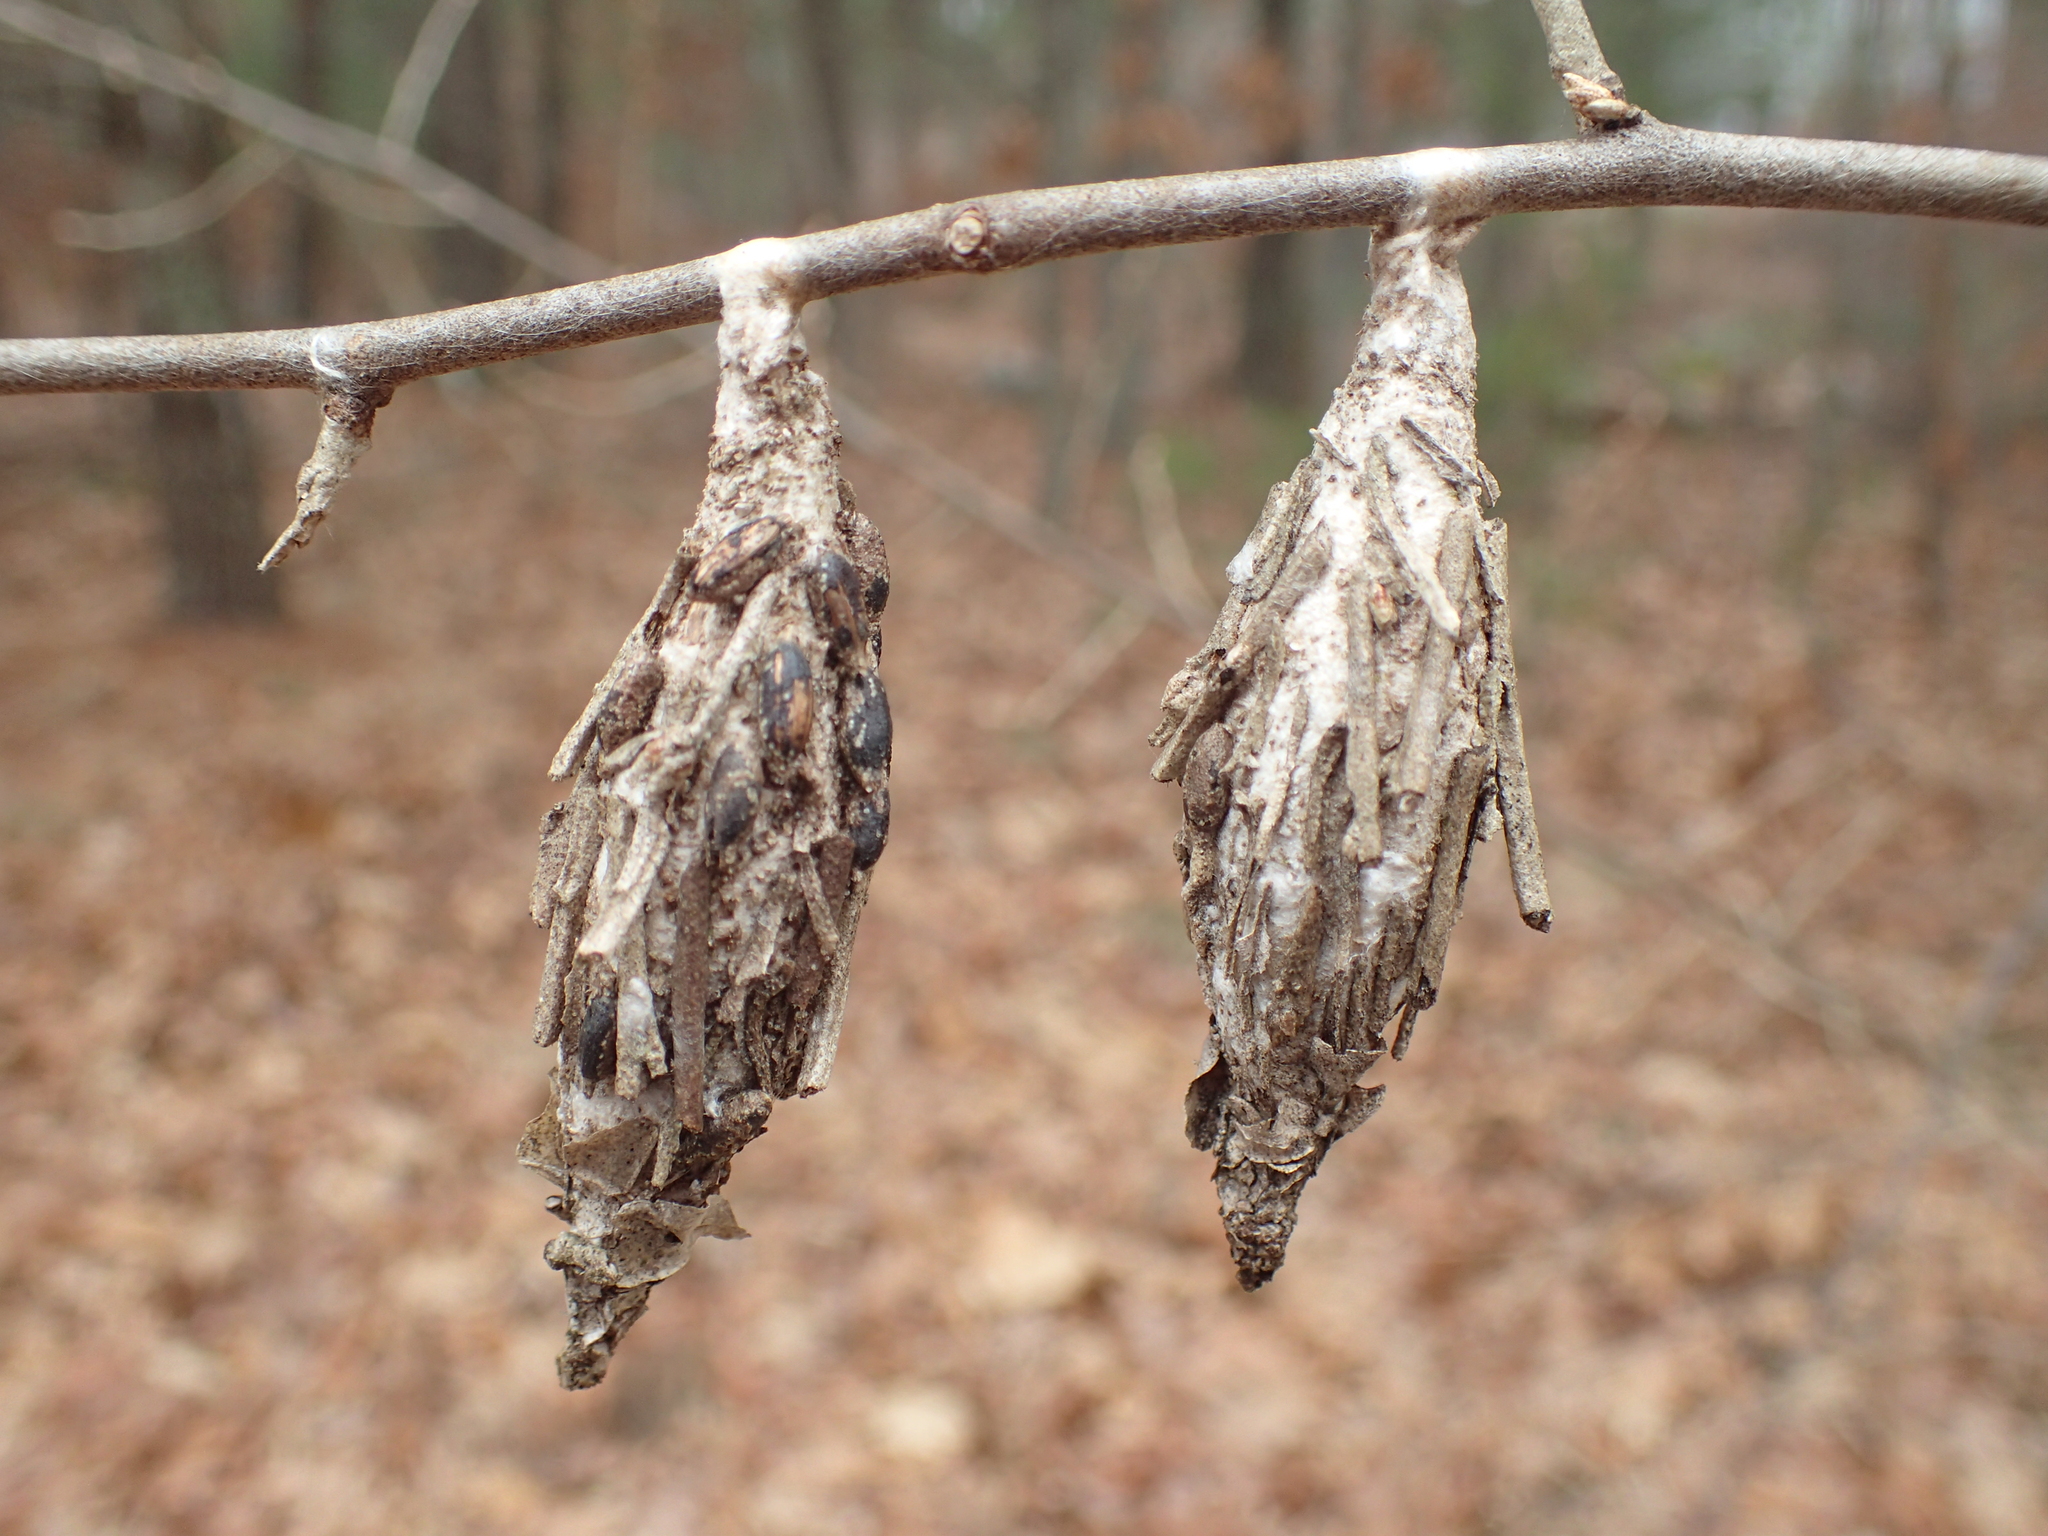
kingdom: Animalia
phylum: Arthropoda
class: Insecta
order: Lepidoptera
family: Psychidae
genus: Thyridopteryx
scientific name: Thyridopteryx ephemeraeformis
